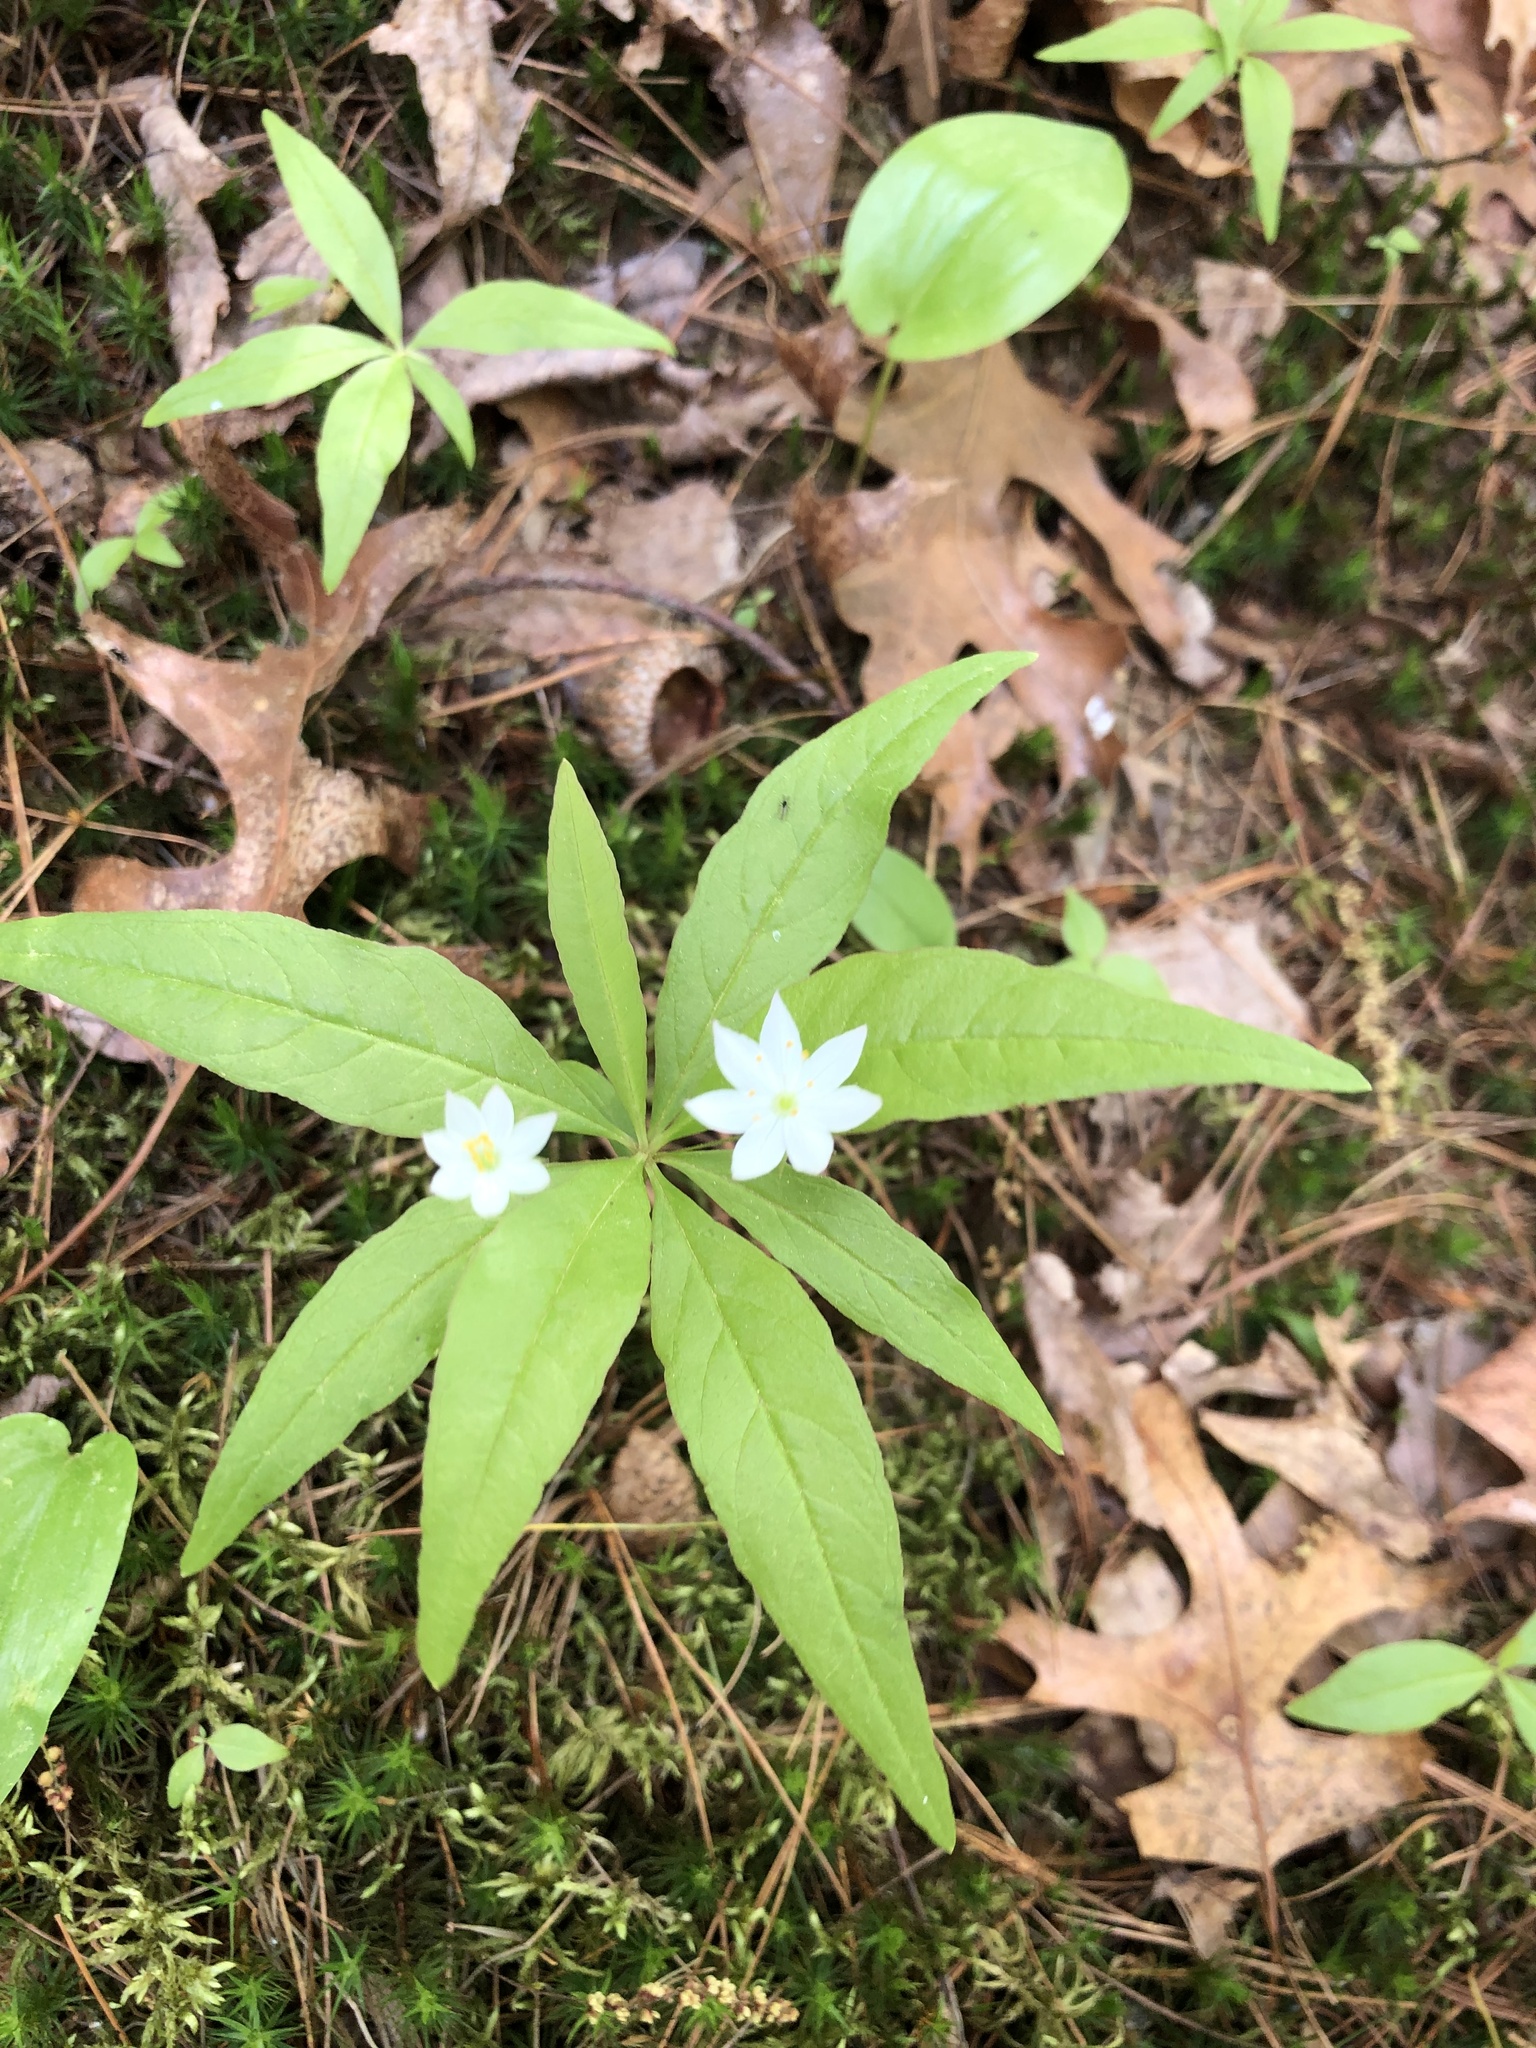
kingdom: Plantae
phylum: Tracheophyta
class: Magnoliopsida
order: Ericales
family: Primulaceae
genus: Lysimachia
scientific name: Lysimachia borealis
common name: American starflower
